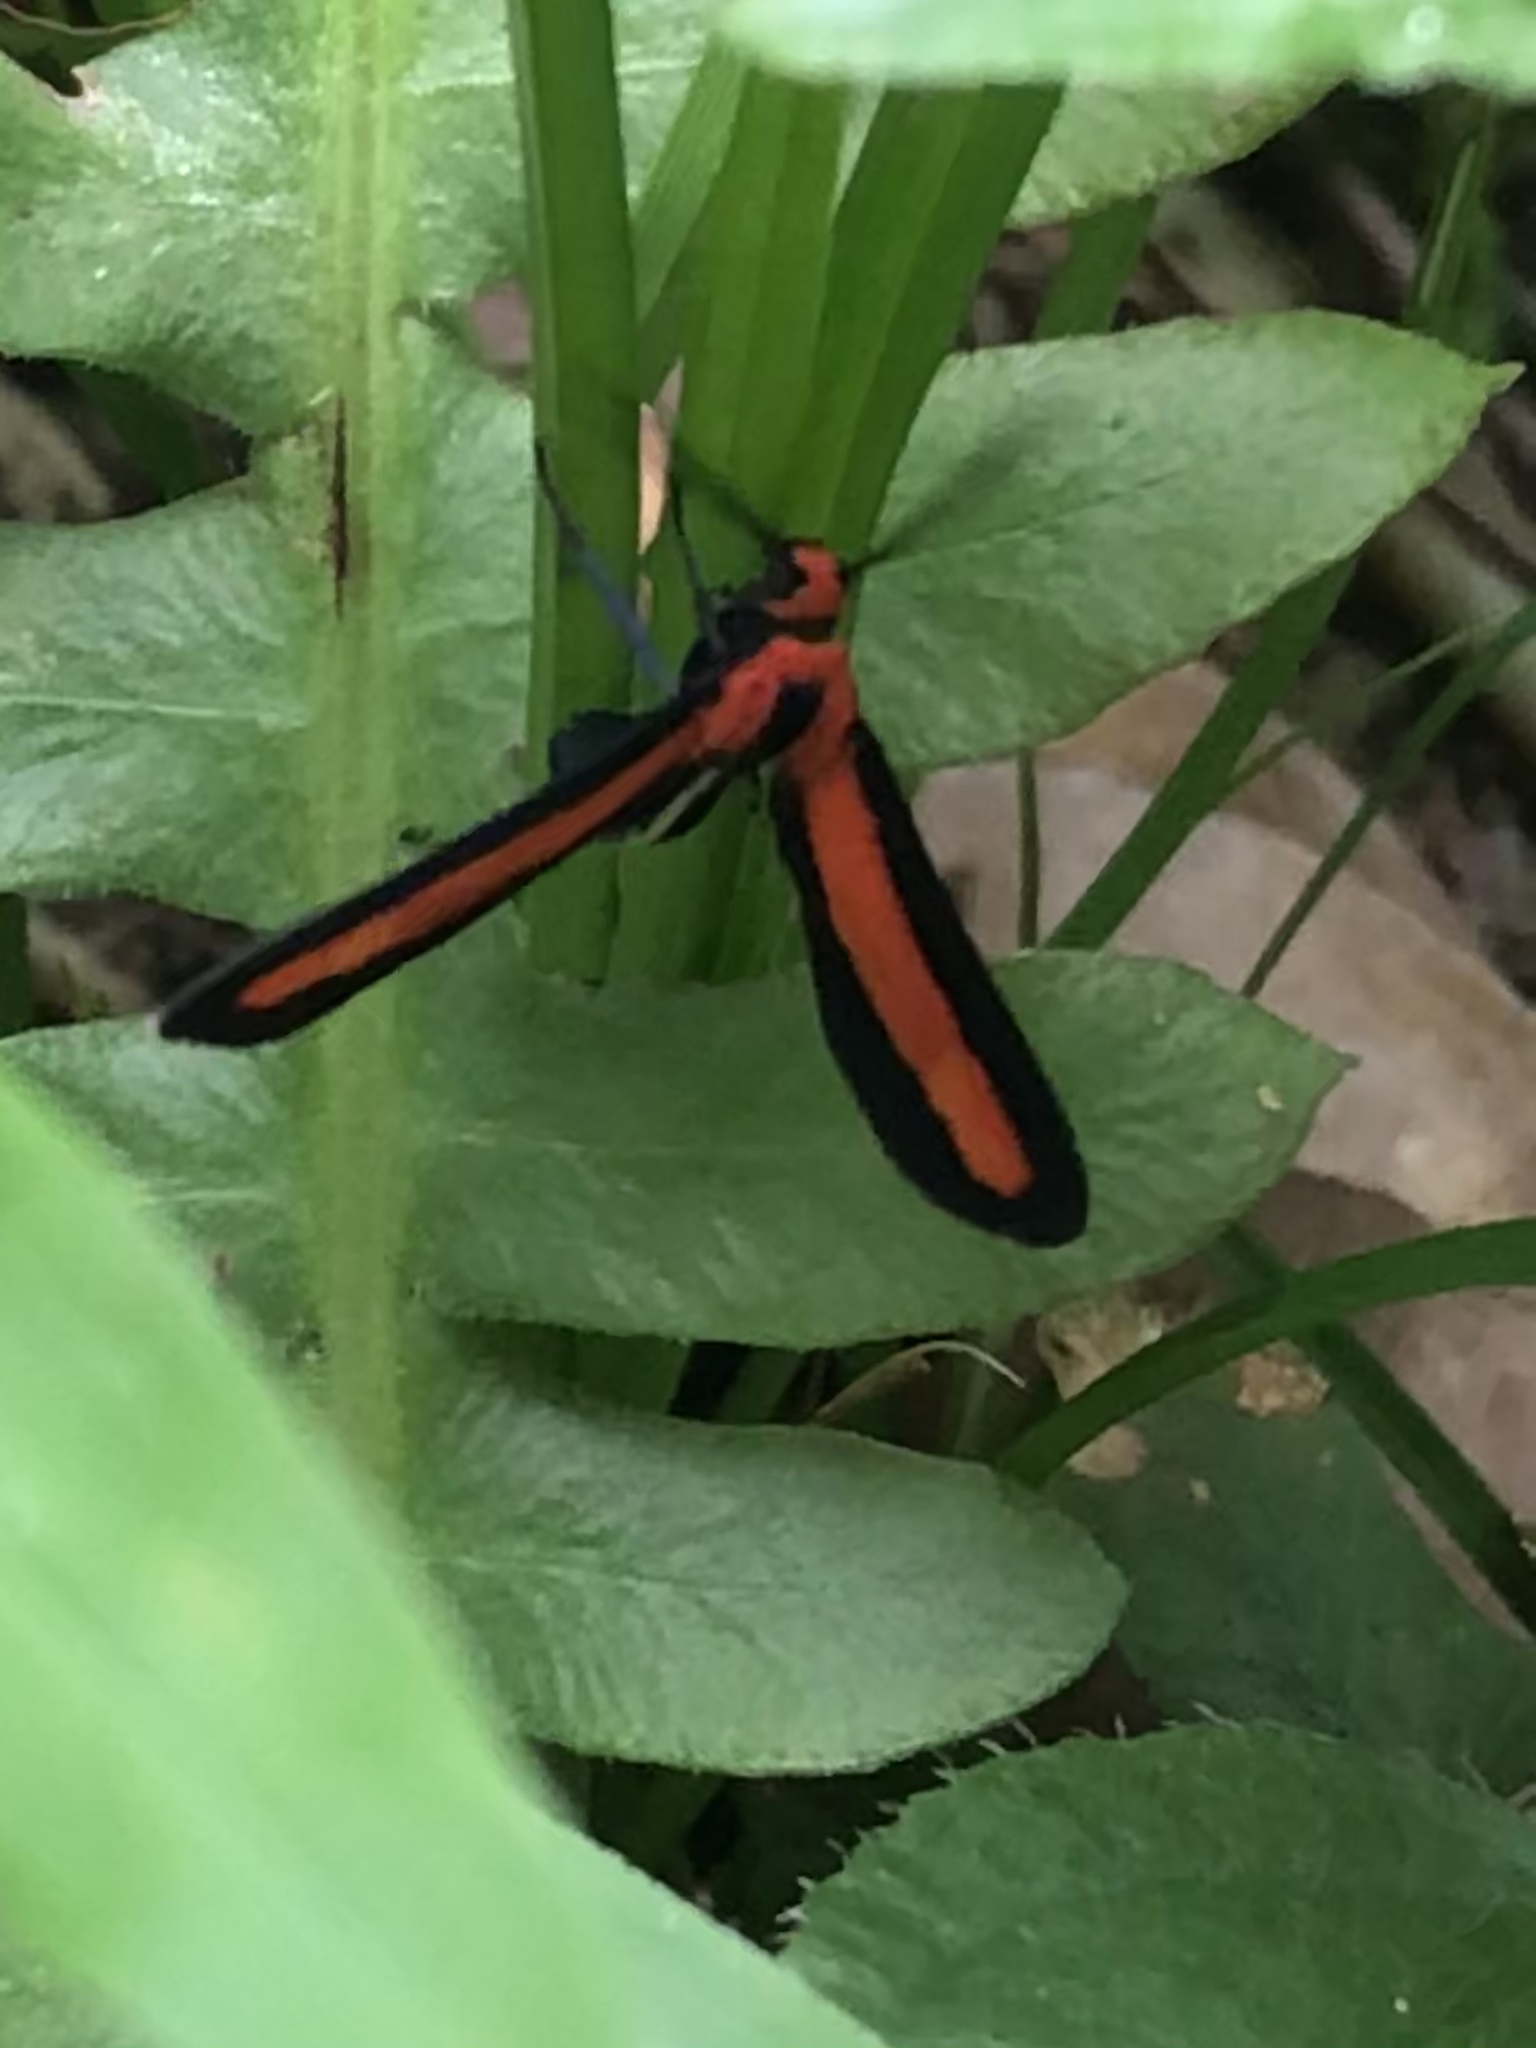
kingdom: Animalia
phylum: Arthropoda
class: Insecta
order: Lepidoptera
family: Erebidae
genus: Tipulodes
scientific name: Tipulodes rubriceps
